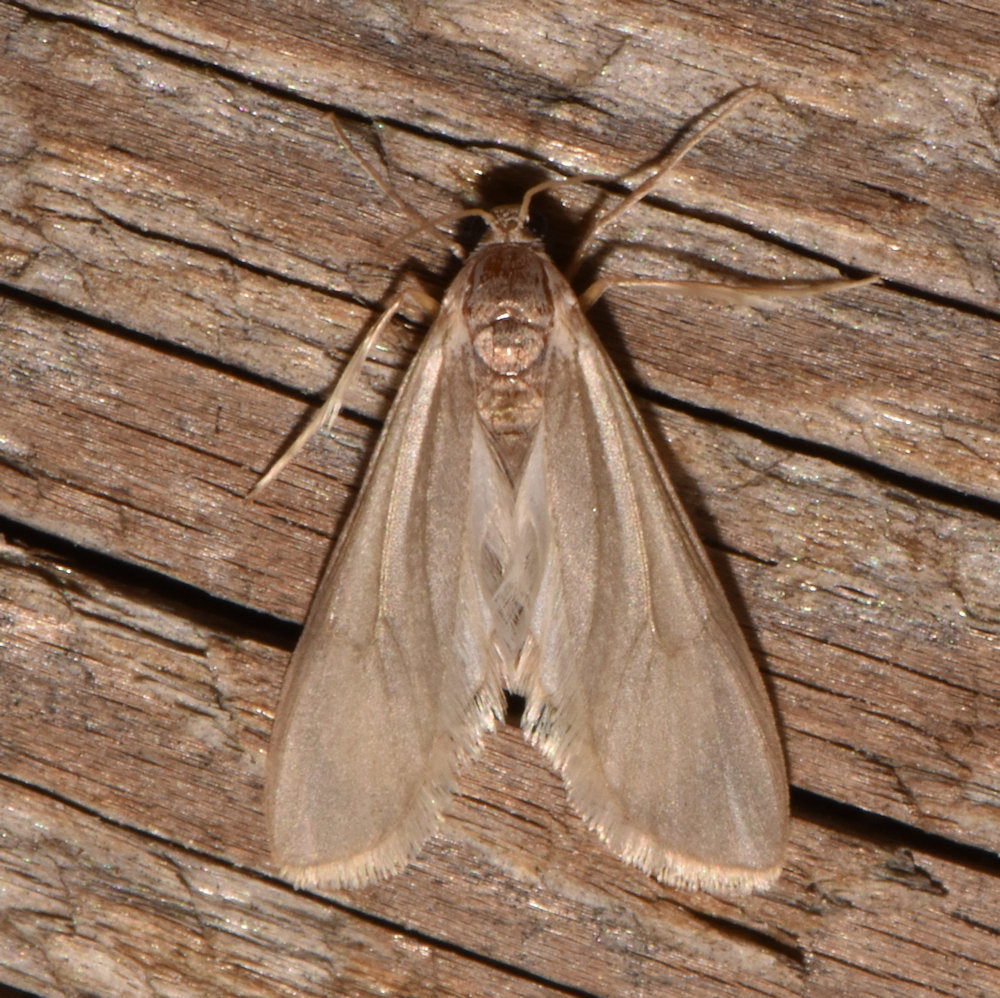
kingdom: Animalia
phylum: Arthropoda
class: Insecta
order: Lepidoptera
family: Crambidae
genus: Acentria
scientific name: Acentria ephemerella
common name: European water moth
